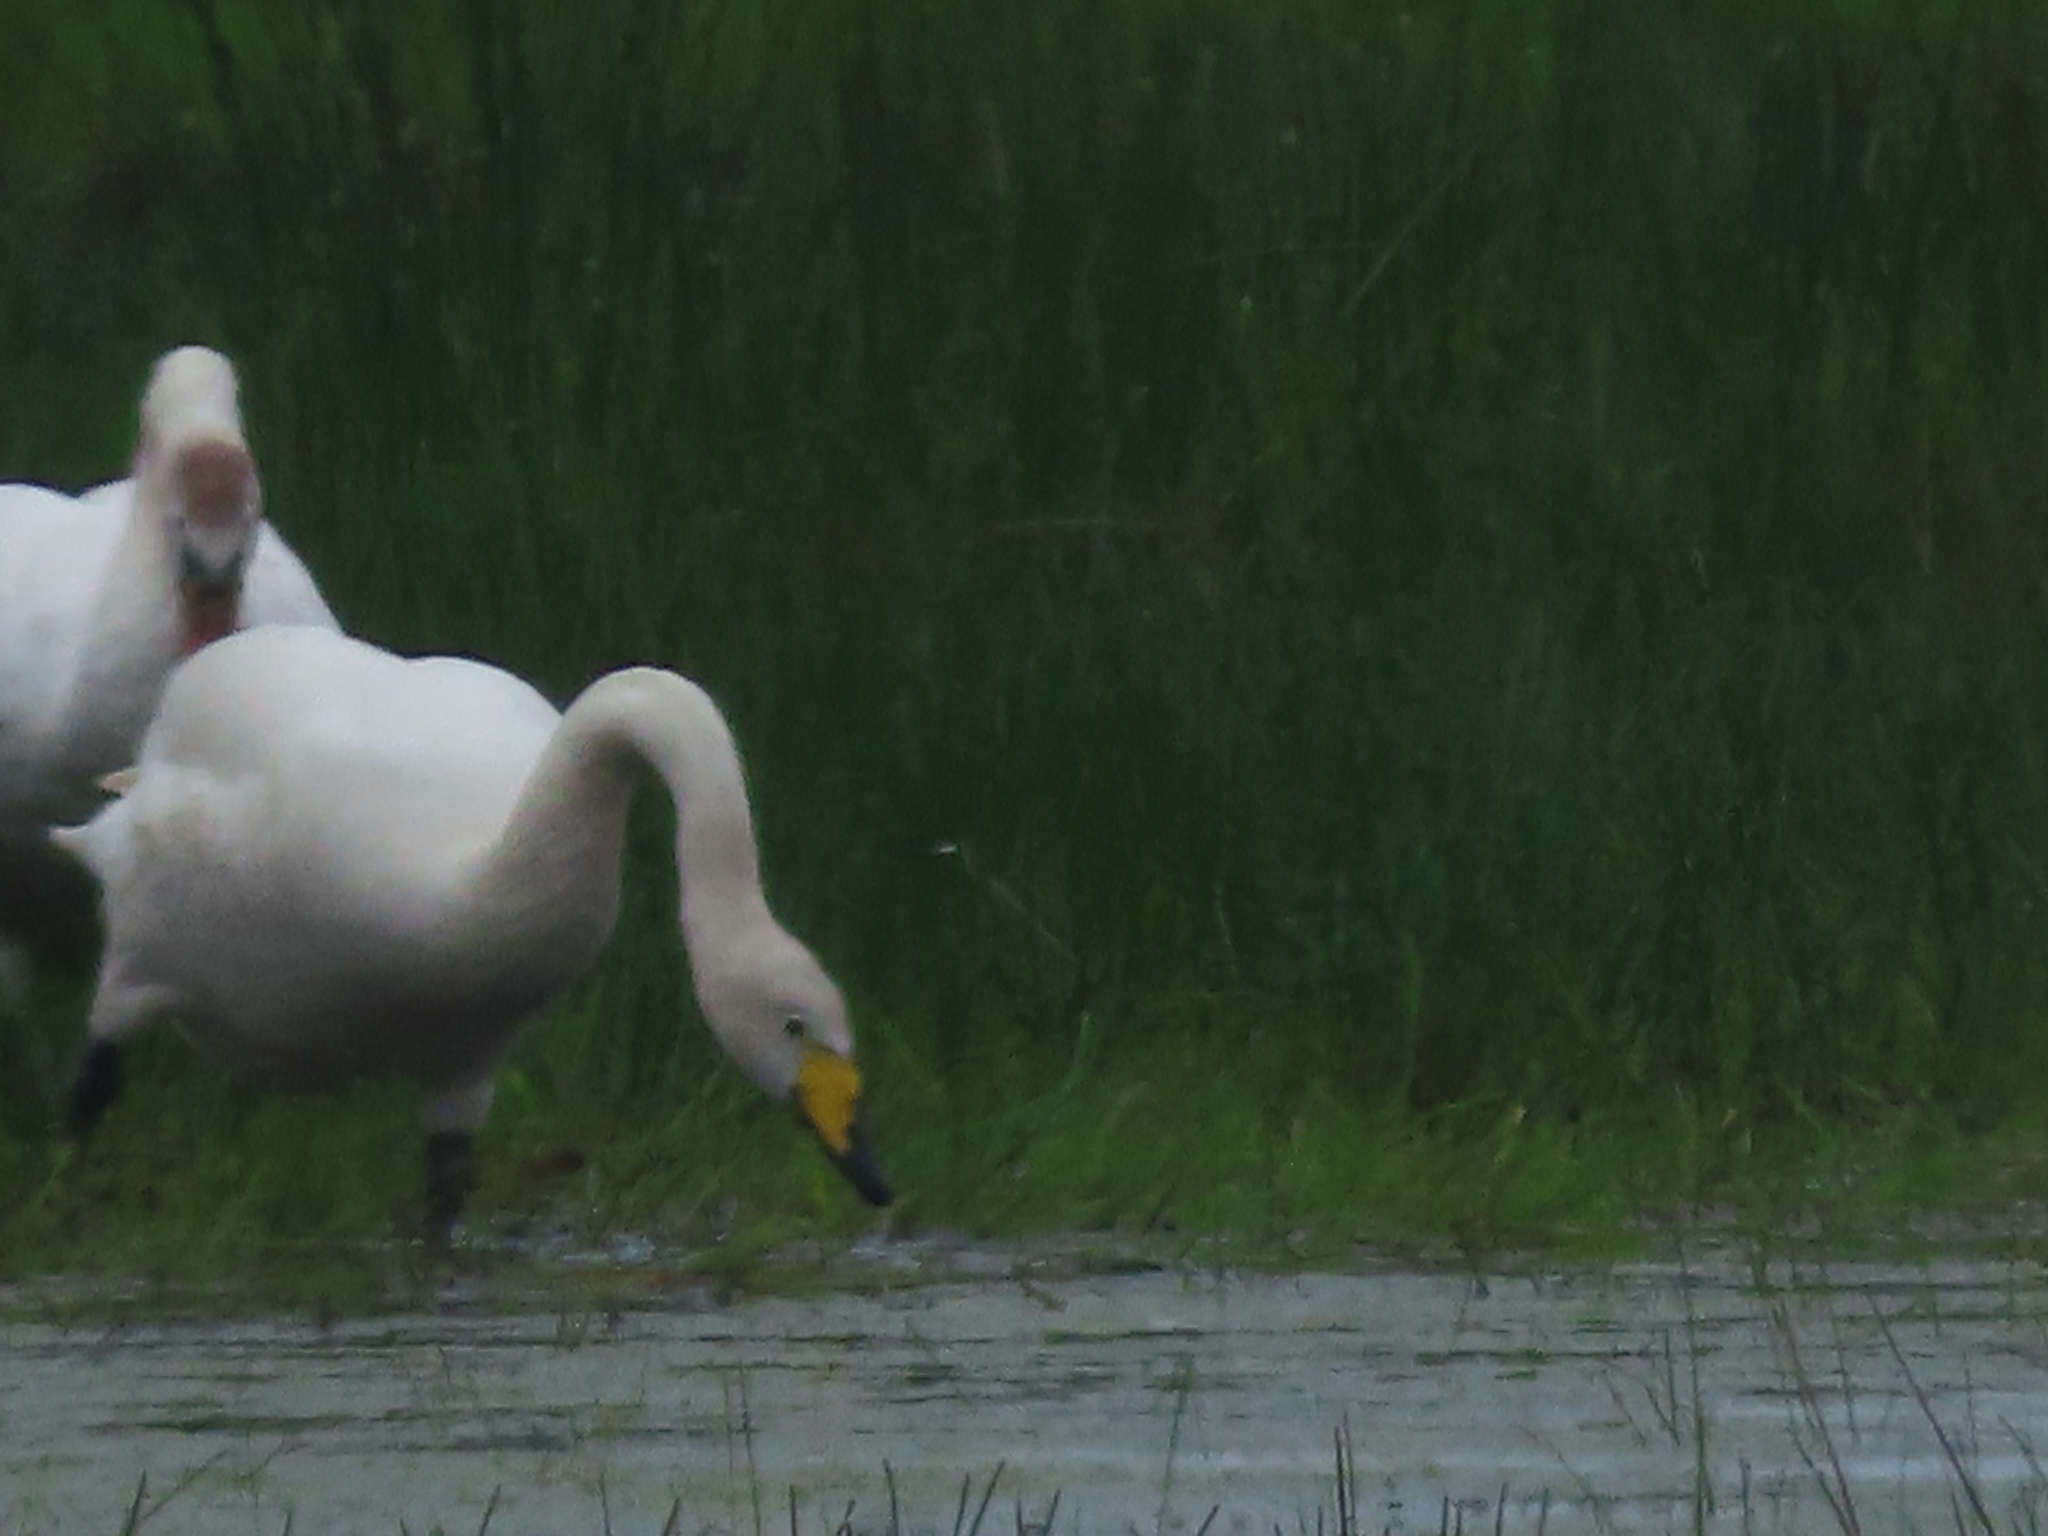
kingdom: Animalia
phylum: Chordata
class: Aves
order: Anseriformes
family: Anatidae
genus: Cygnus
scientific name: Cygnus cygnus
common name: Whooper swan
